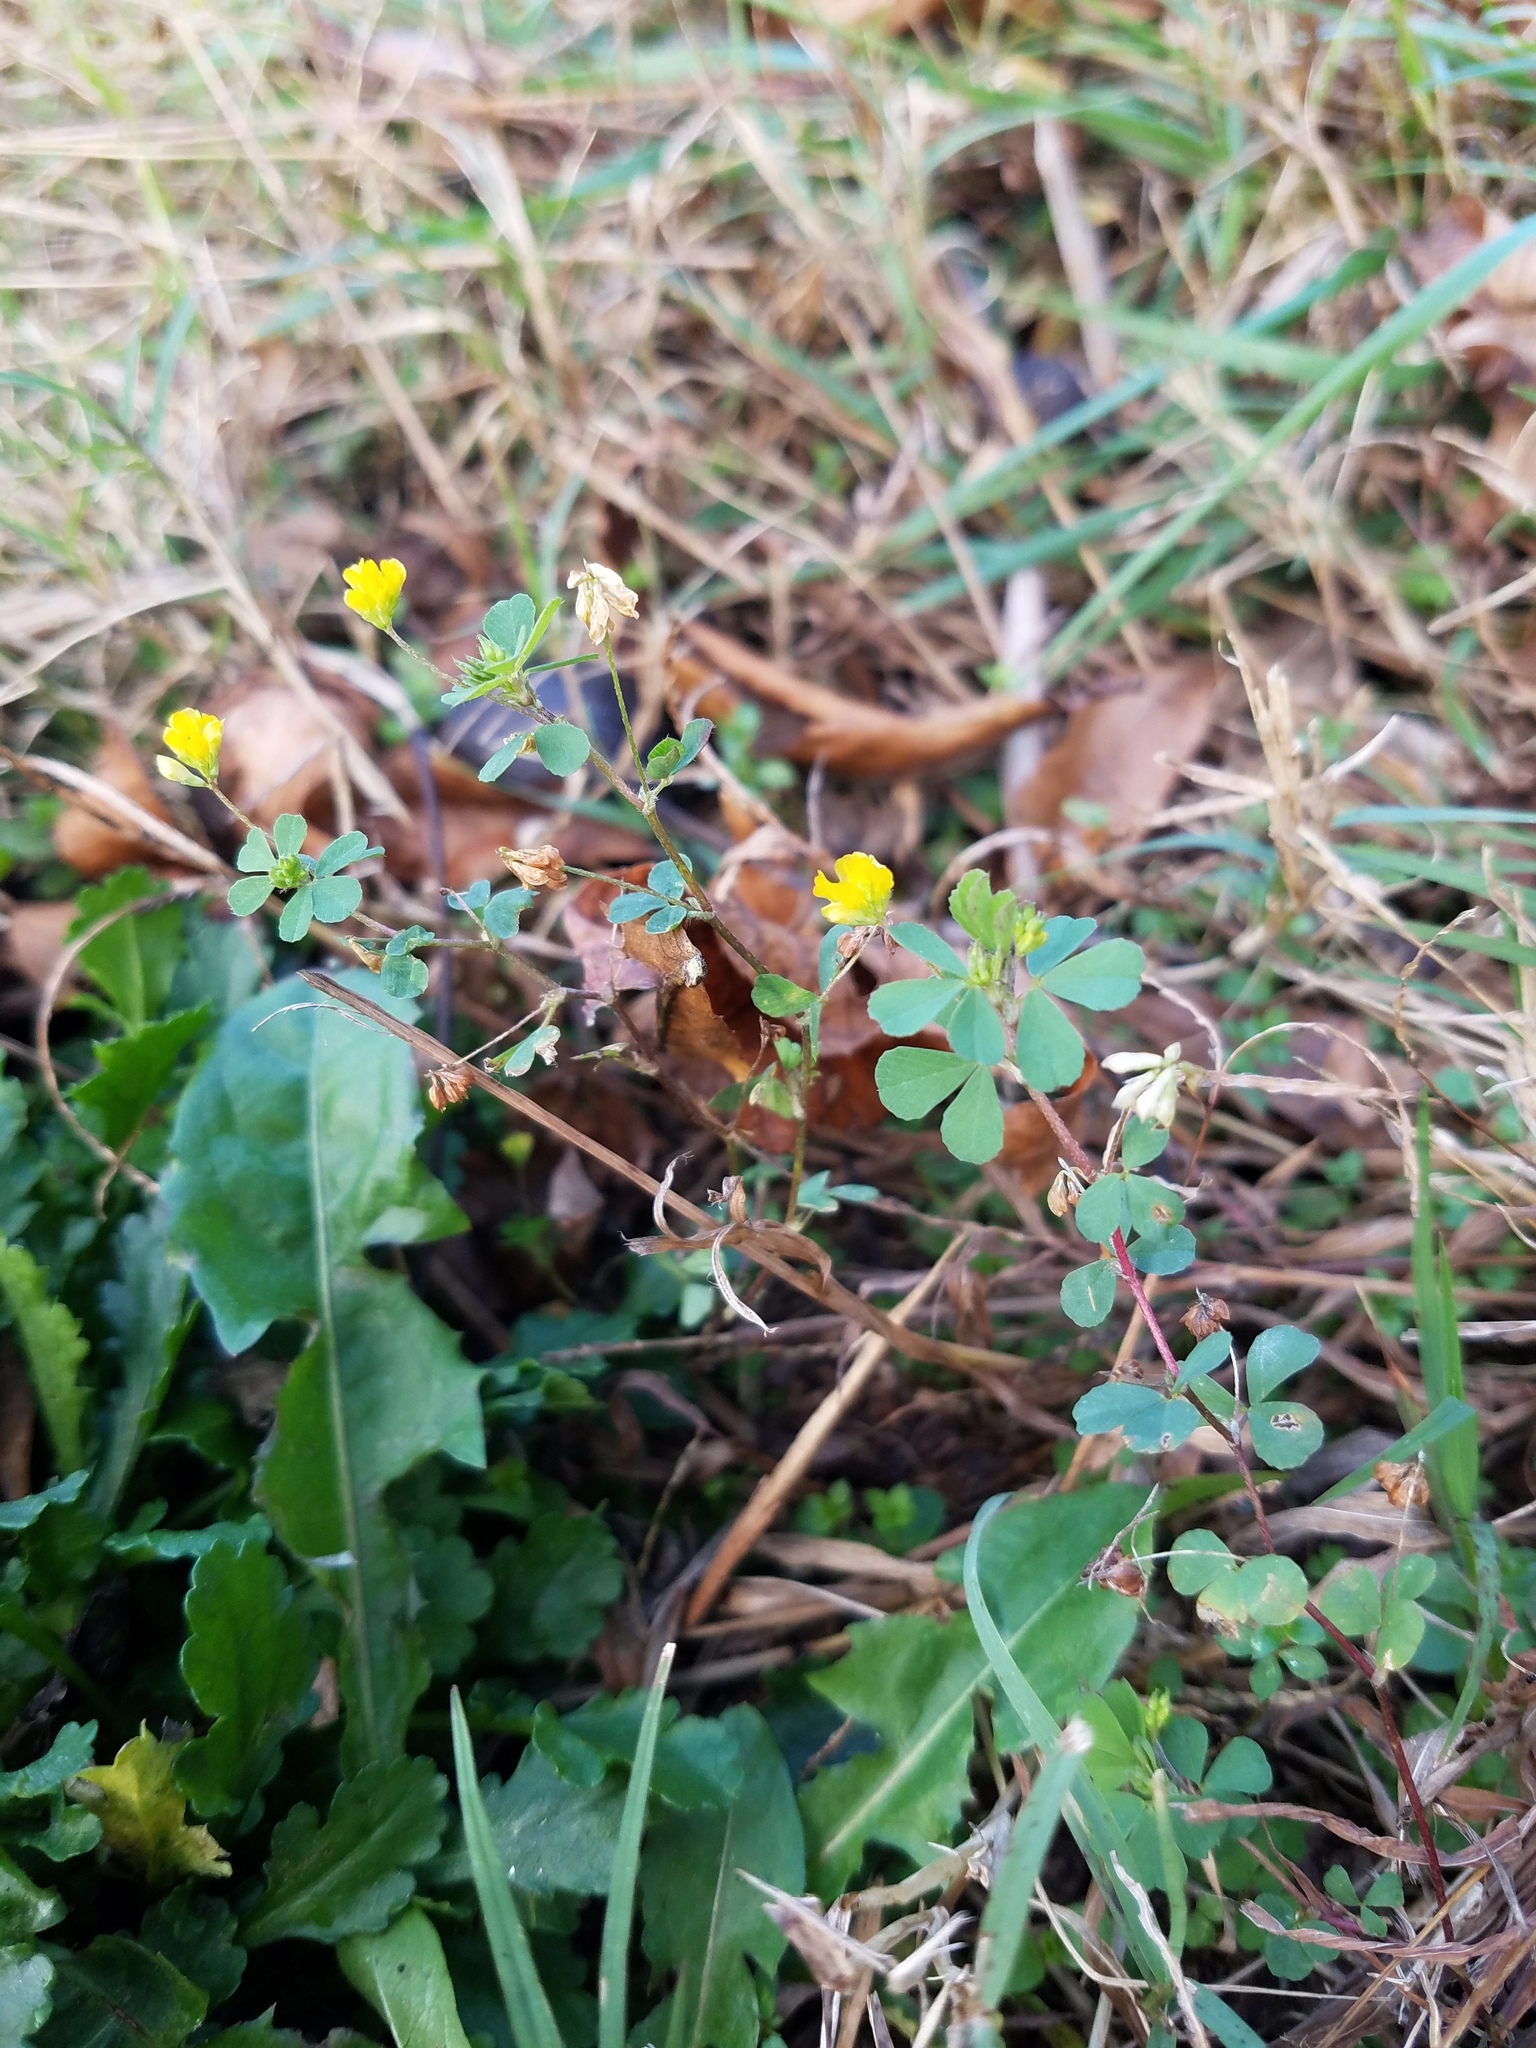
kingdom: Plantae
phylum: Tracheophyta
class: Magnoliopsida
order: Fabales
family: Fabaceae
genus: Trifolium
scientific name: Trifolium dubium
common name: Suckling clover
